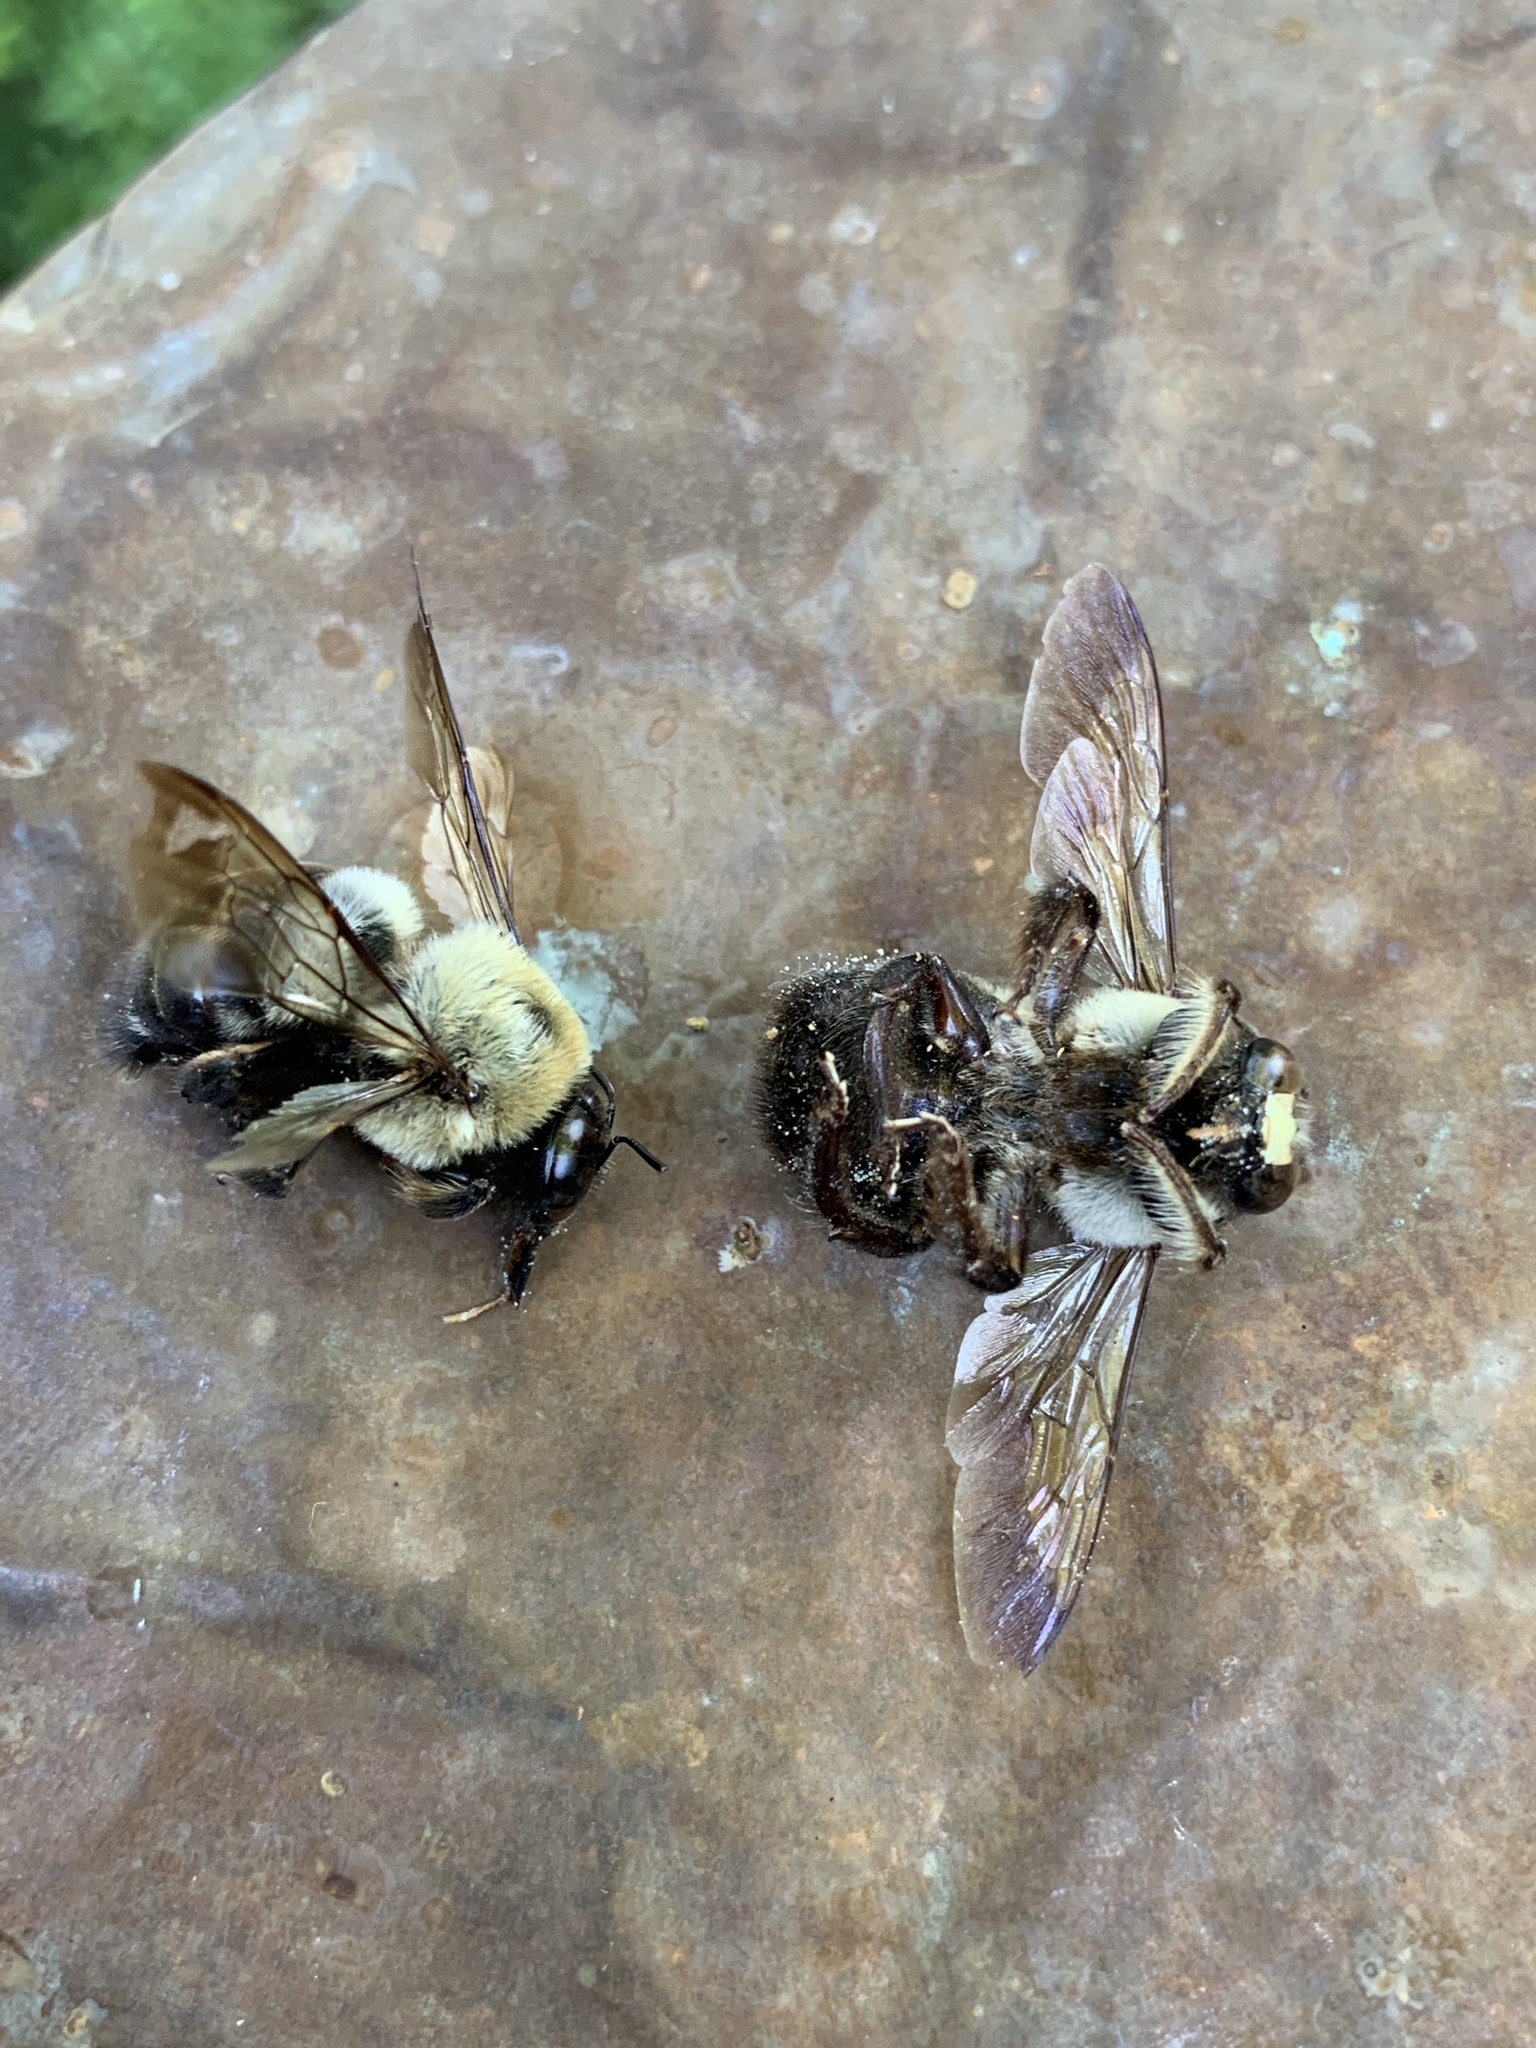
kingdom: Animalia
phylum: Arthropoda
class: Insecta
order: Hymenoptera
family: Apidae
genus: Xylocopa
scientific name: Xylocopa virginica
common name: Carpenter bee
